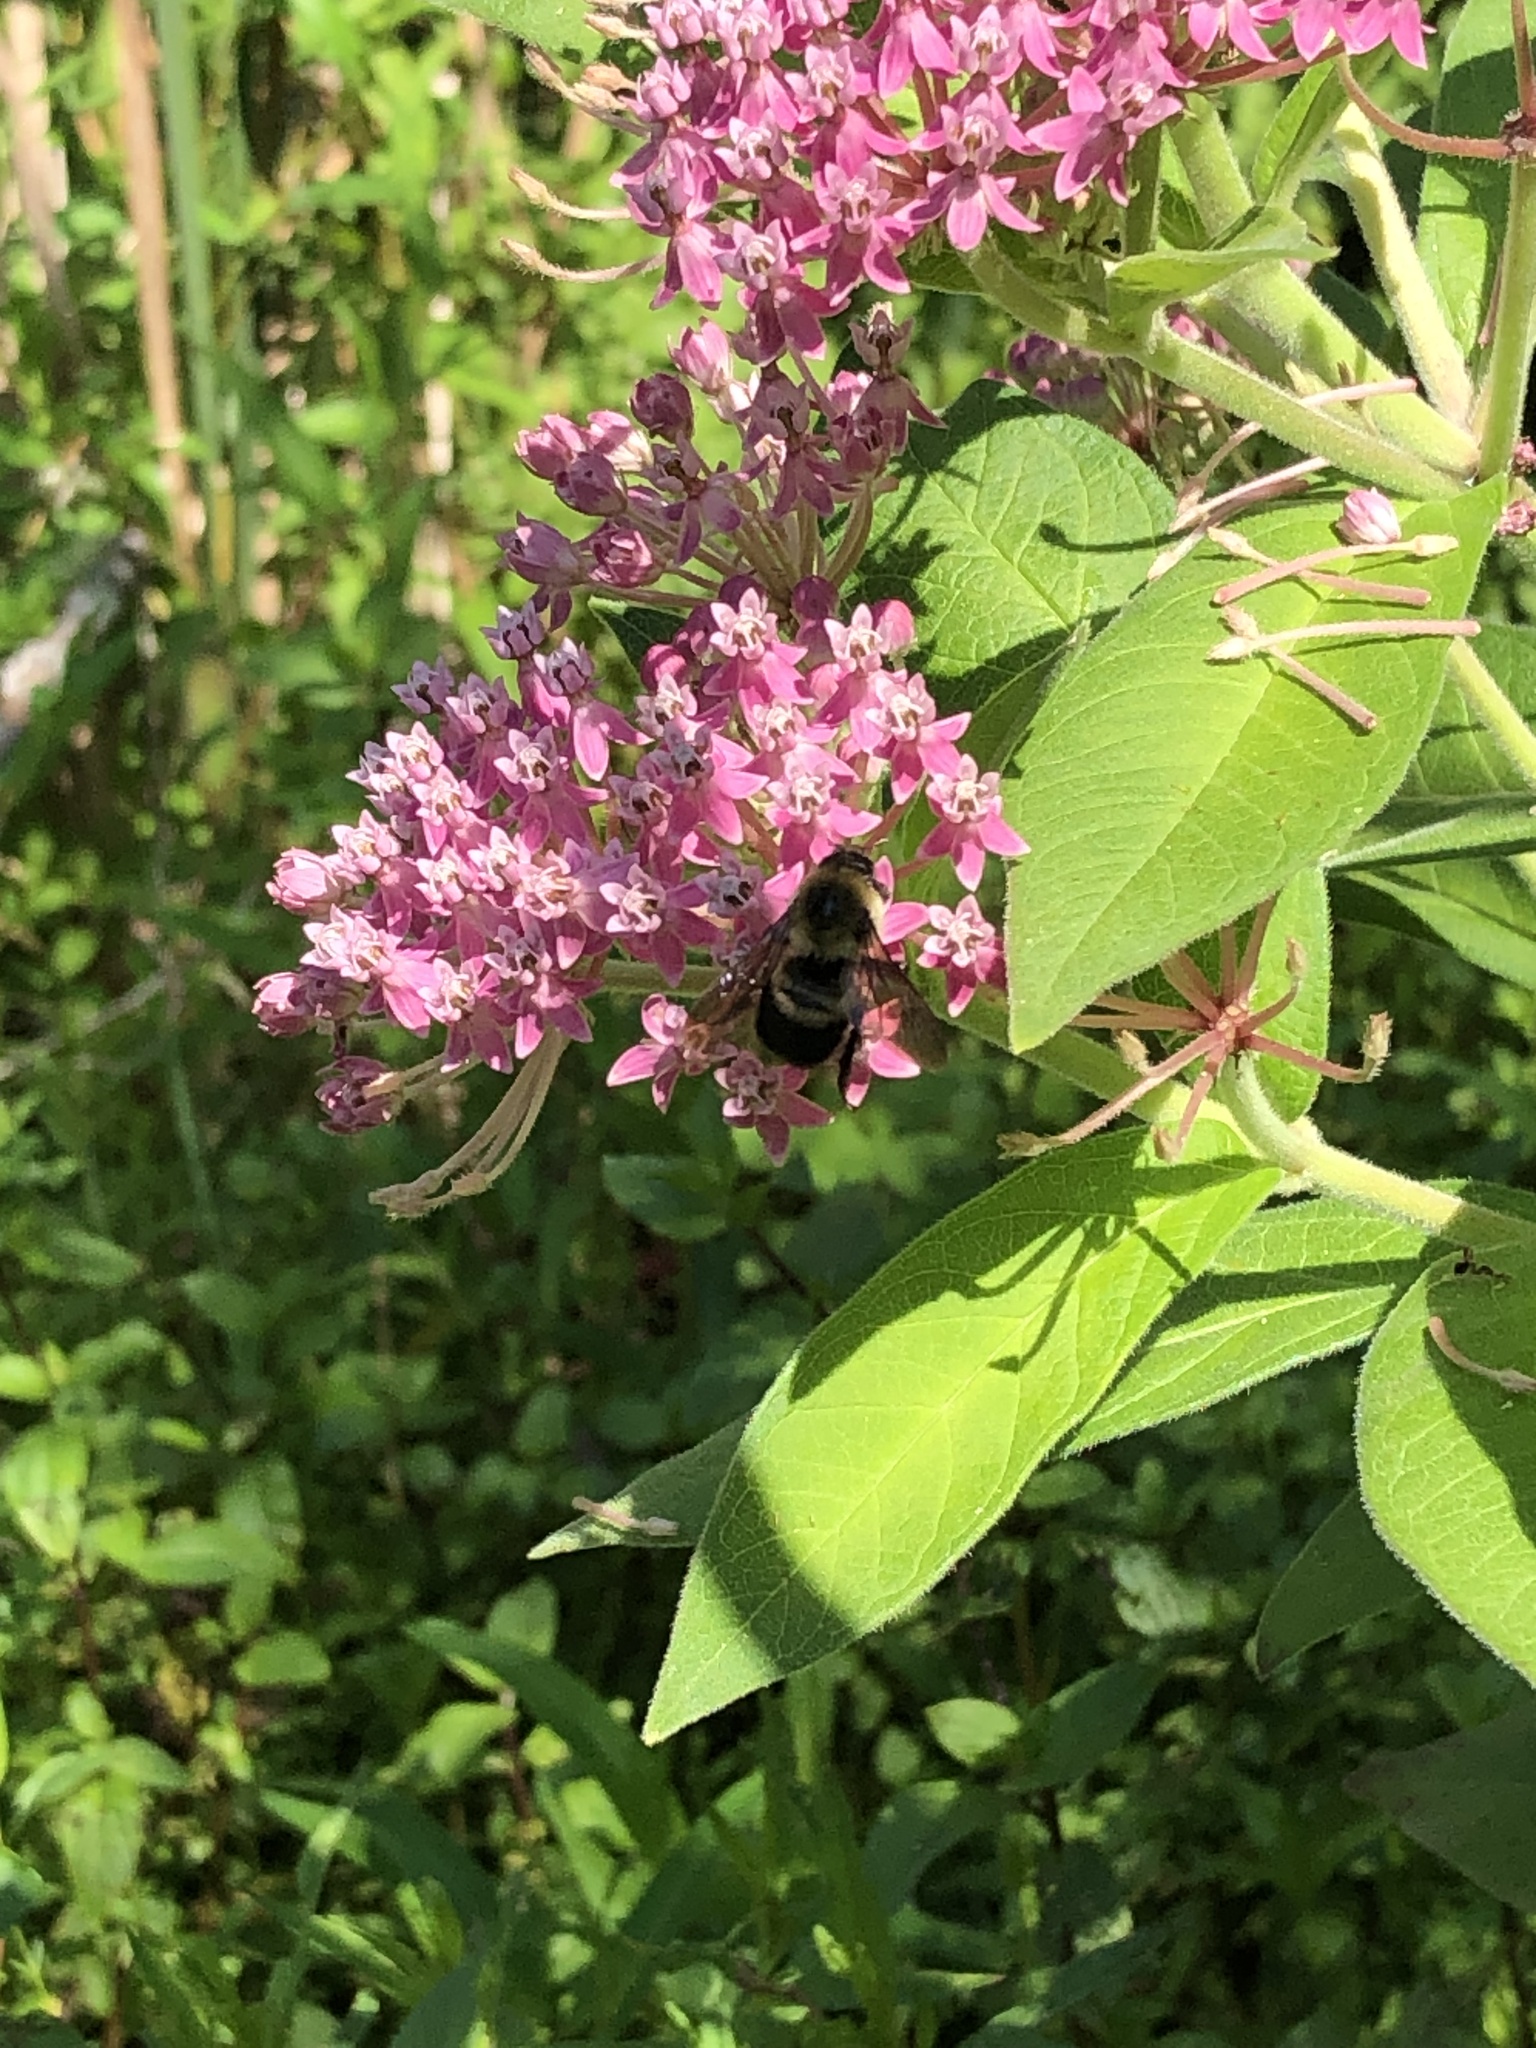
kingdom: Animalia
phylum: Arthropoda
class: Insecta
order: Hymenoptera
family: Apidae
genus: Bombus
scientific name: Bombus griseocollis
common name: Brown-belted bumble bee
